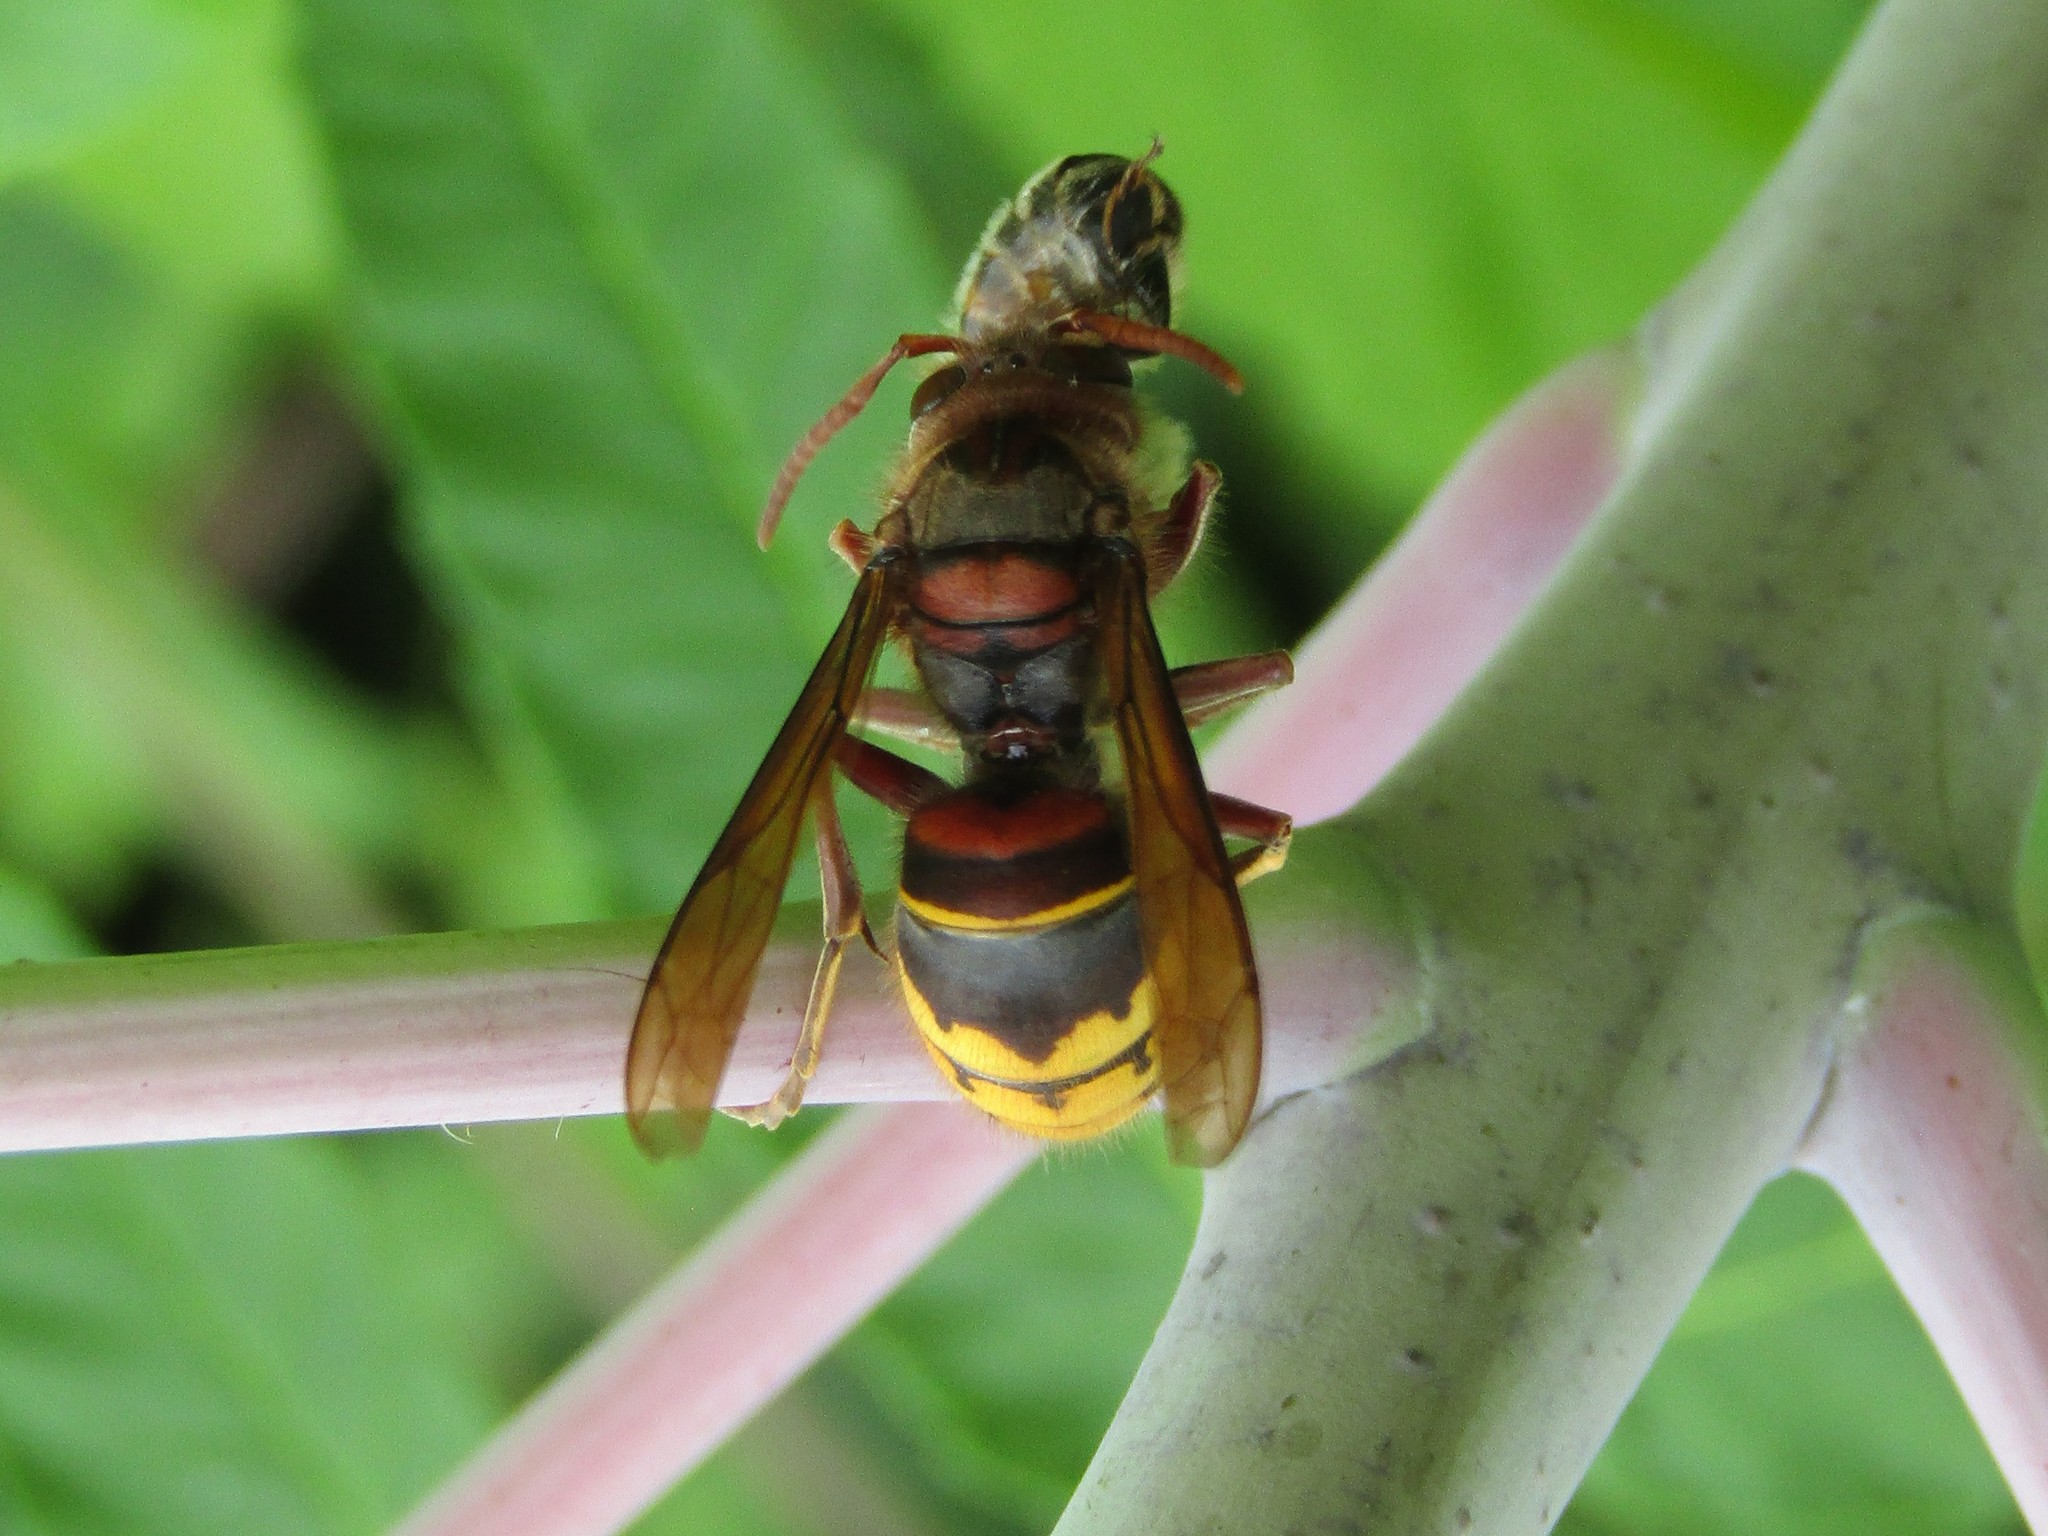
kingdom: Animalia
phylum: Arthropoda
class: Insecta
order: Hymenoptera
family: Vespidae
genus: Vespa
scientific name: Vespa crabro
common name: Hornet
